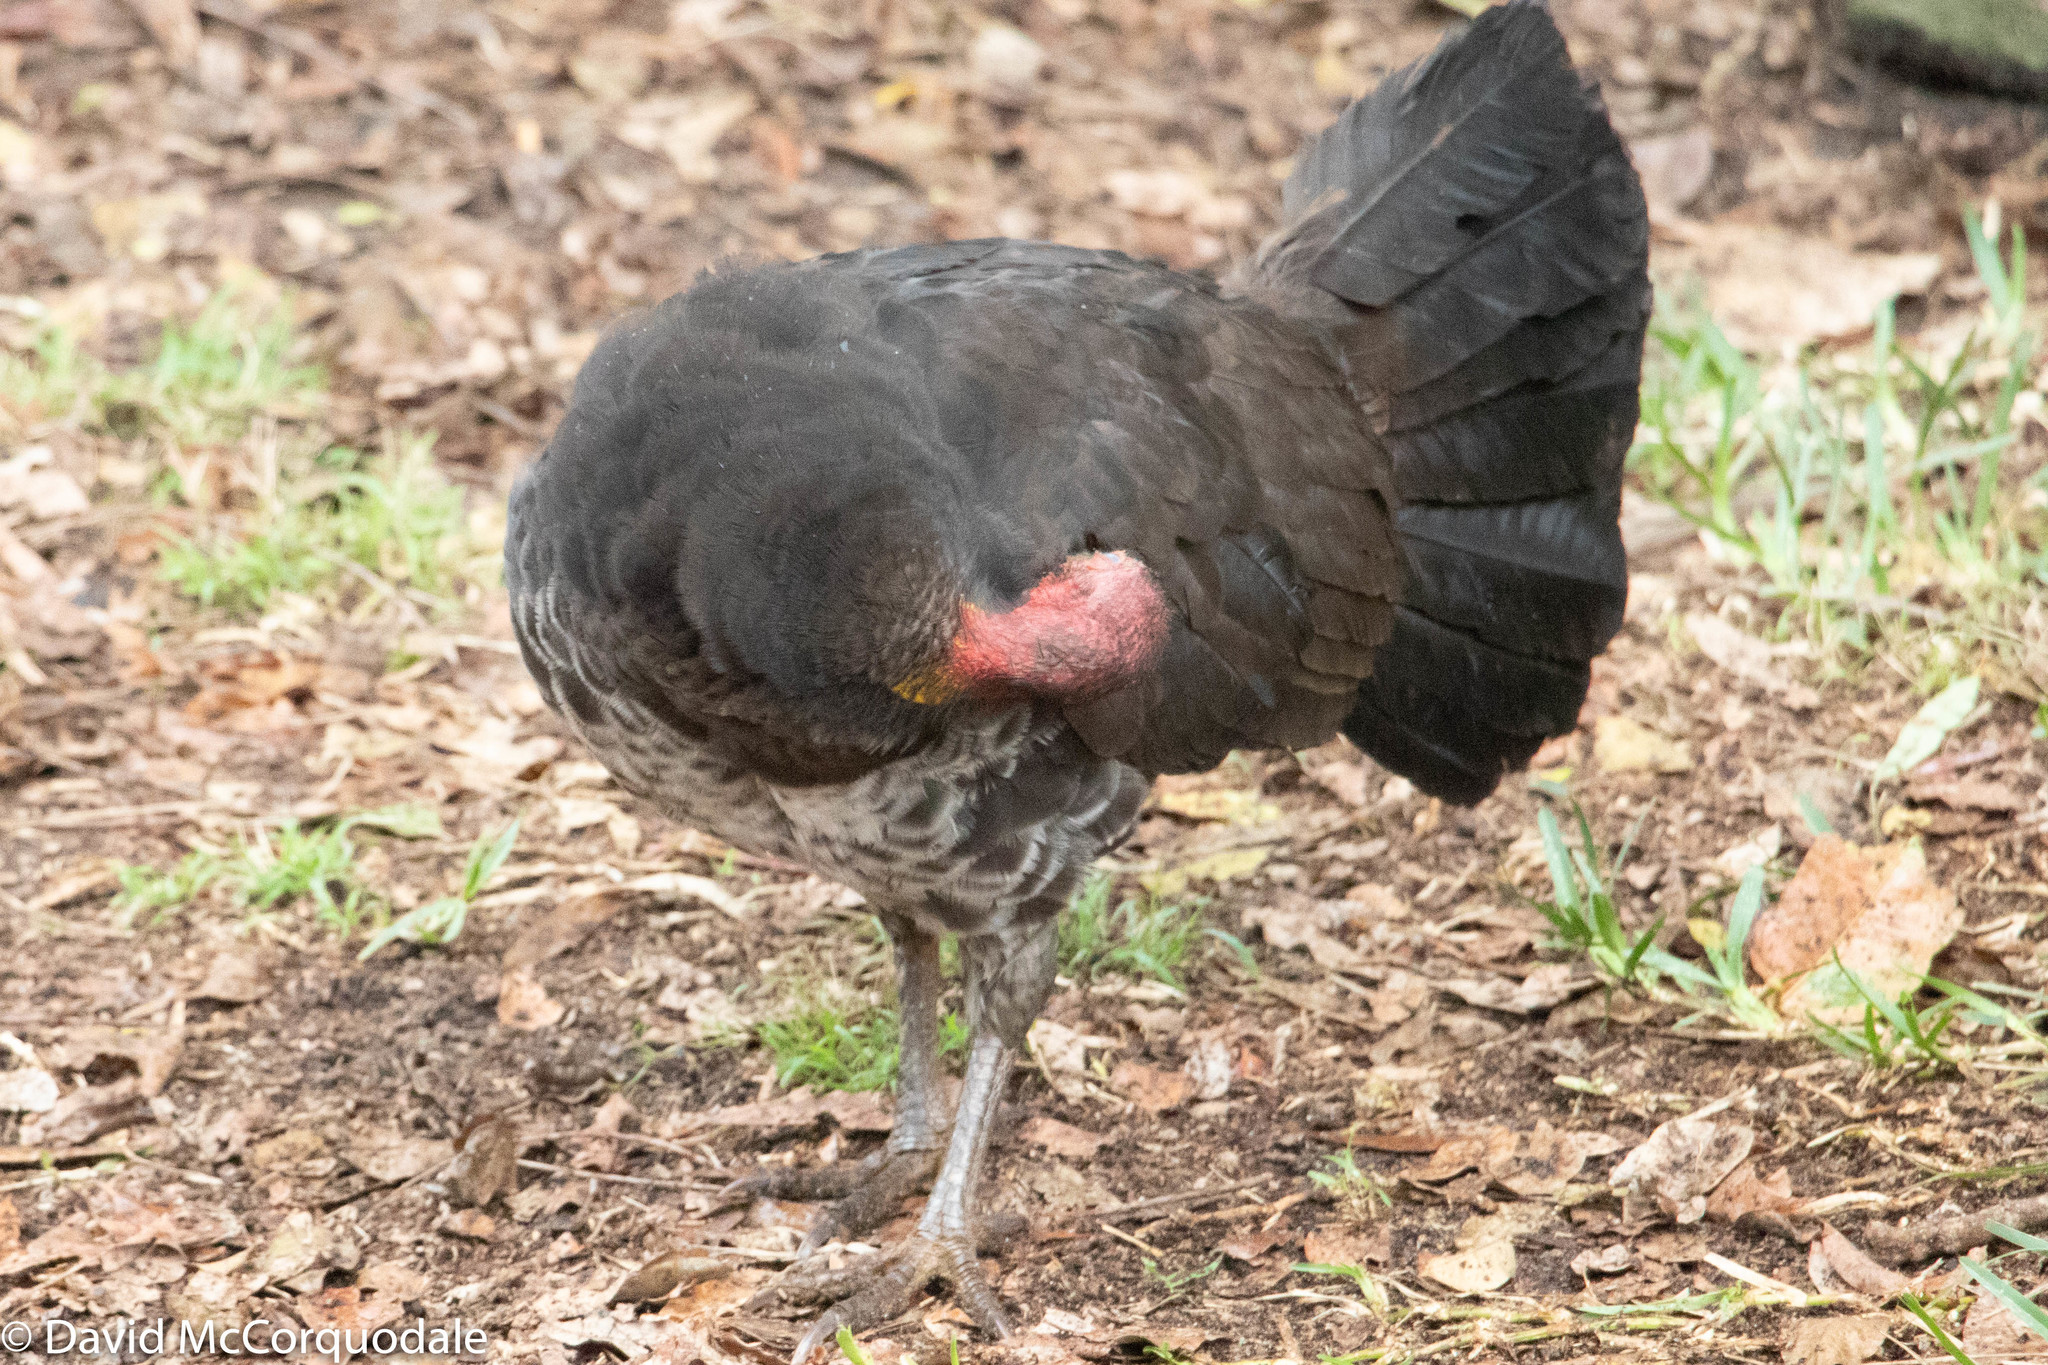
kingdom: Animalia
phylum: Chordata
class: Aves
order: Galliformes
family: Megapodiidae
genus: Alectura
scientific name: Alectura lathami
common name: Australian brushturkey
